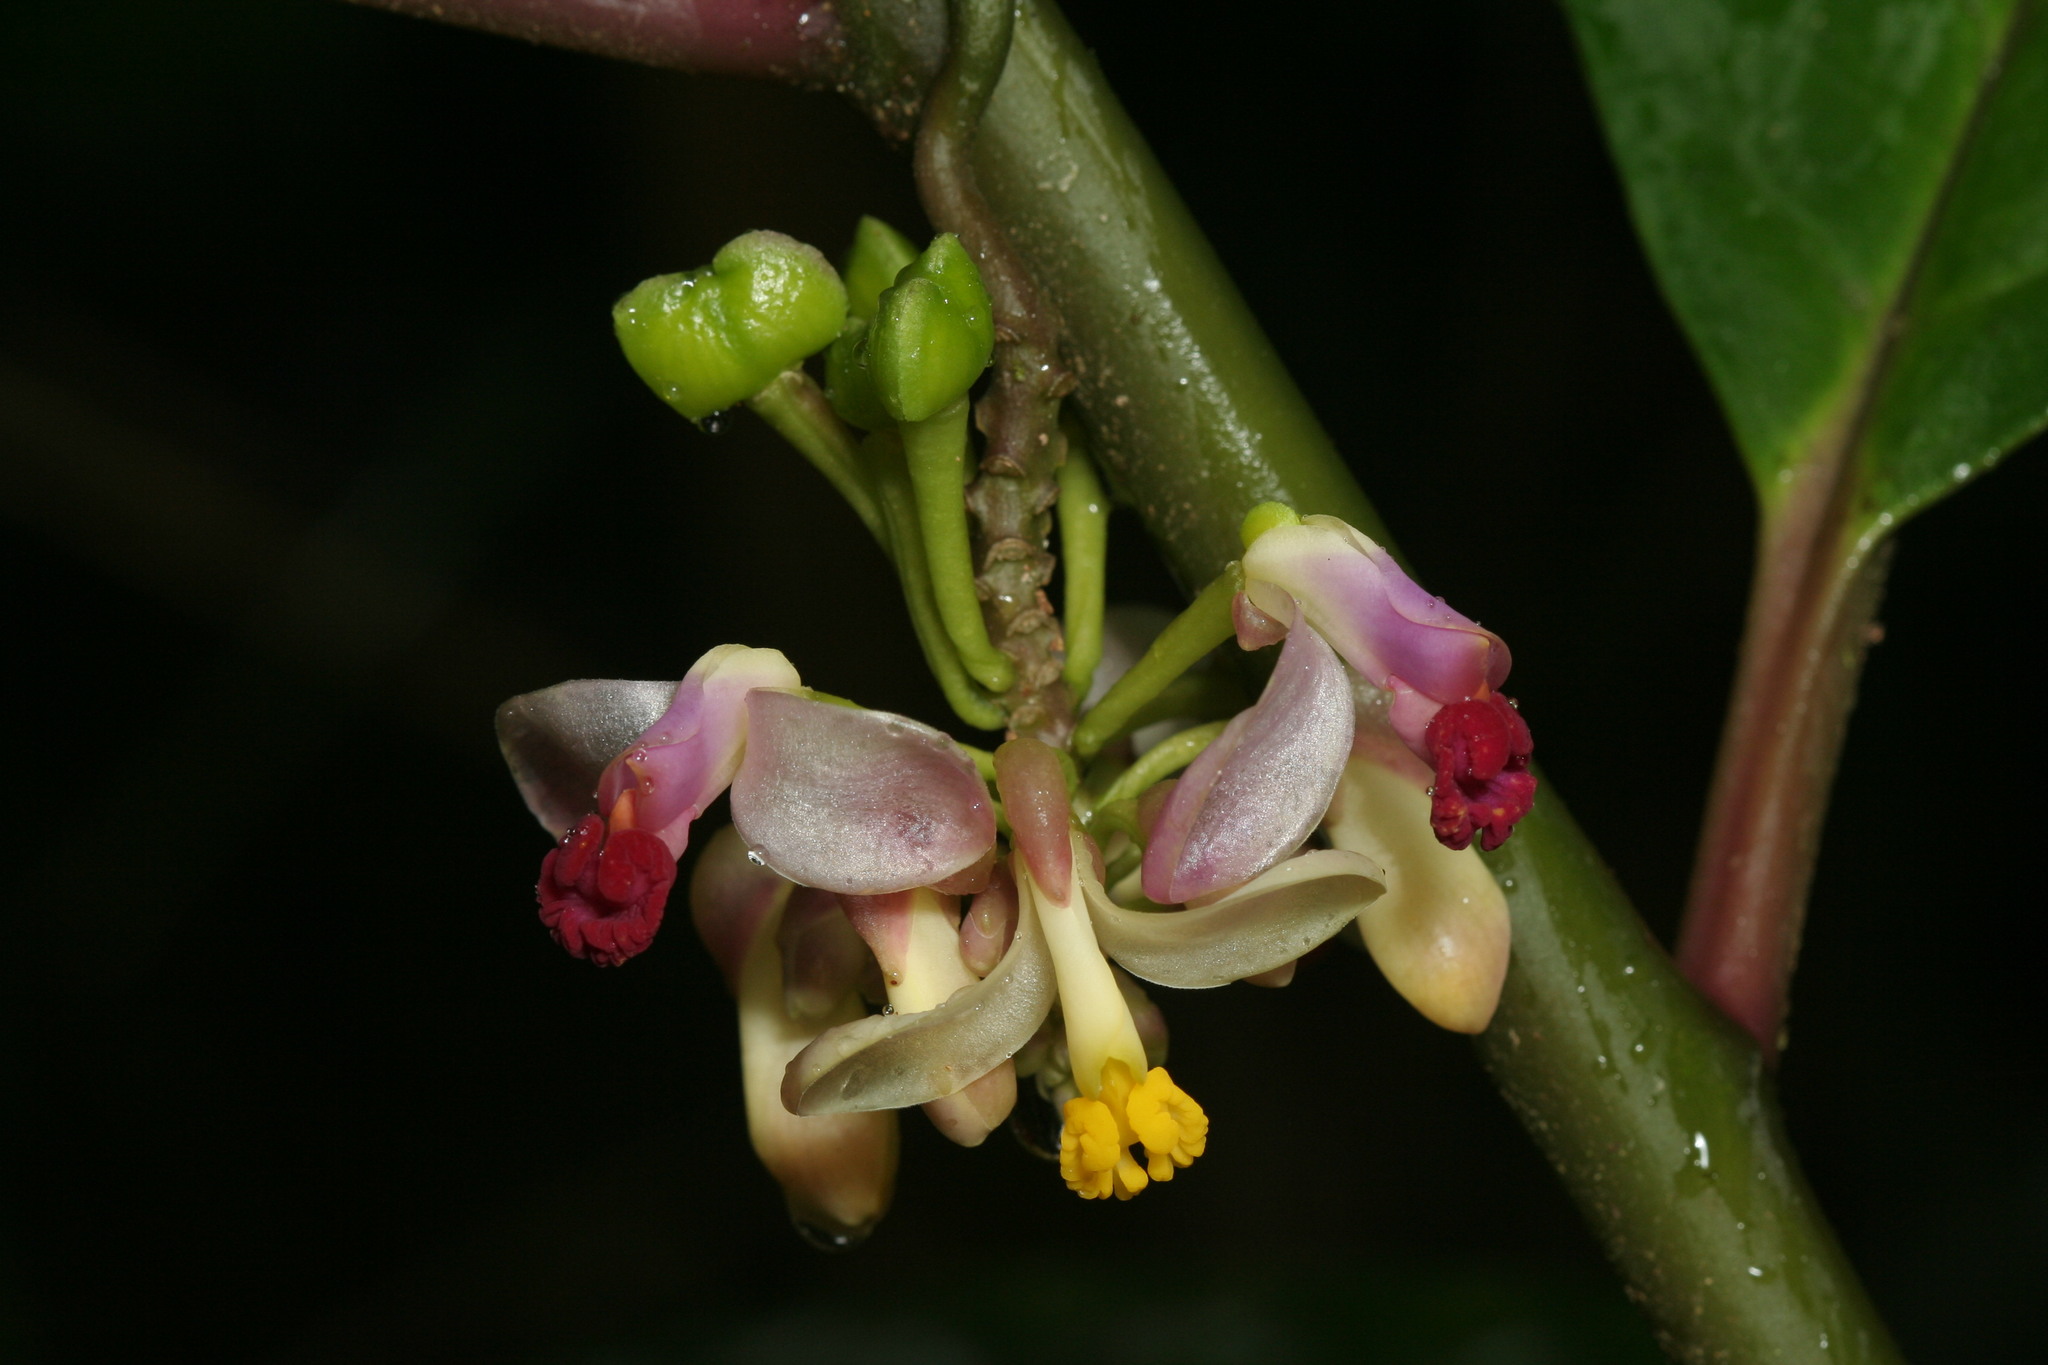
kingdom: Plantae
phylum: Tracheophyta
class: Magnoliopsida
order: Fabales
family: Polygalaceae
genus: Polygala
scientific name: Polygala venenosa
